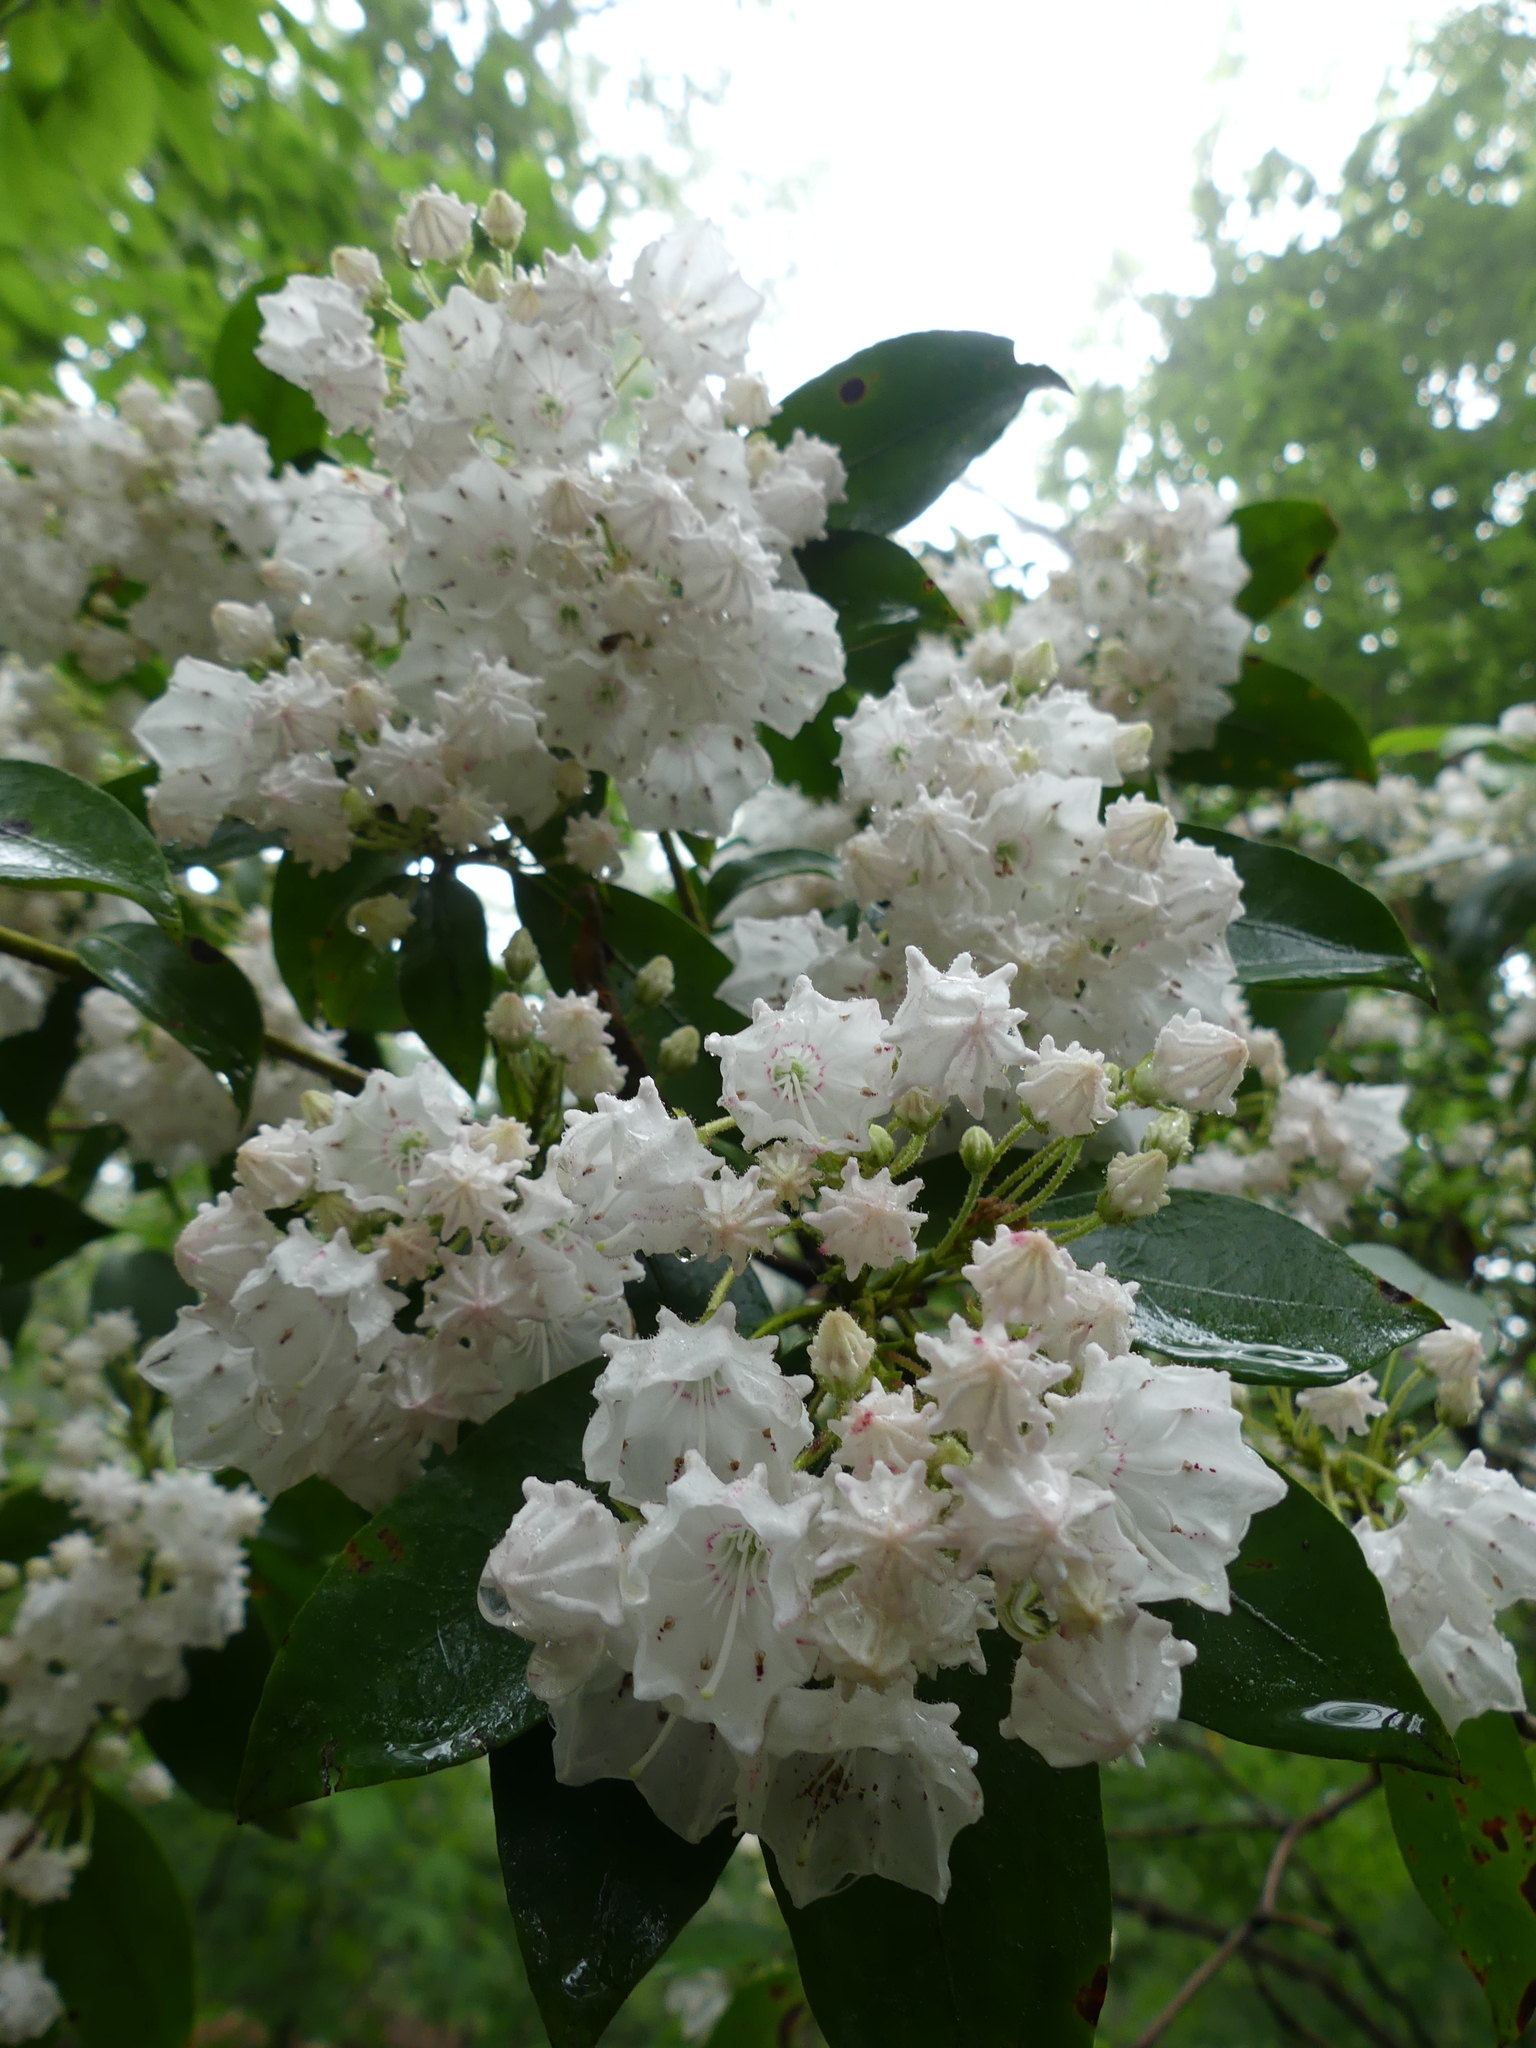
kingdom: Plantae
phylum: Tracheophyta
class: Magnoliopsida
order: Ericales
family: Ericaceae
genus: Kalmia
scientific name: Kalmia latifolia
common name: Mountain-laurel
